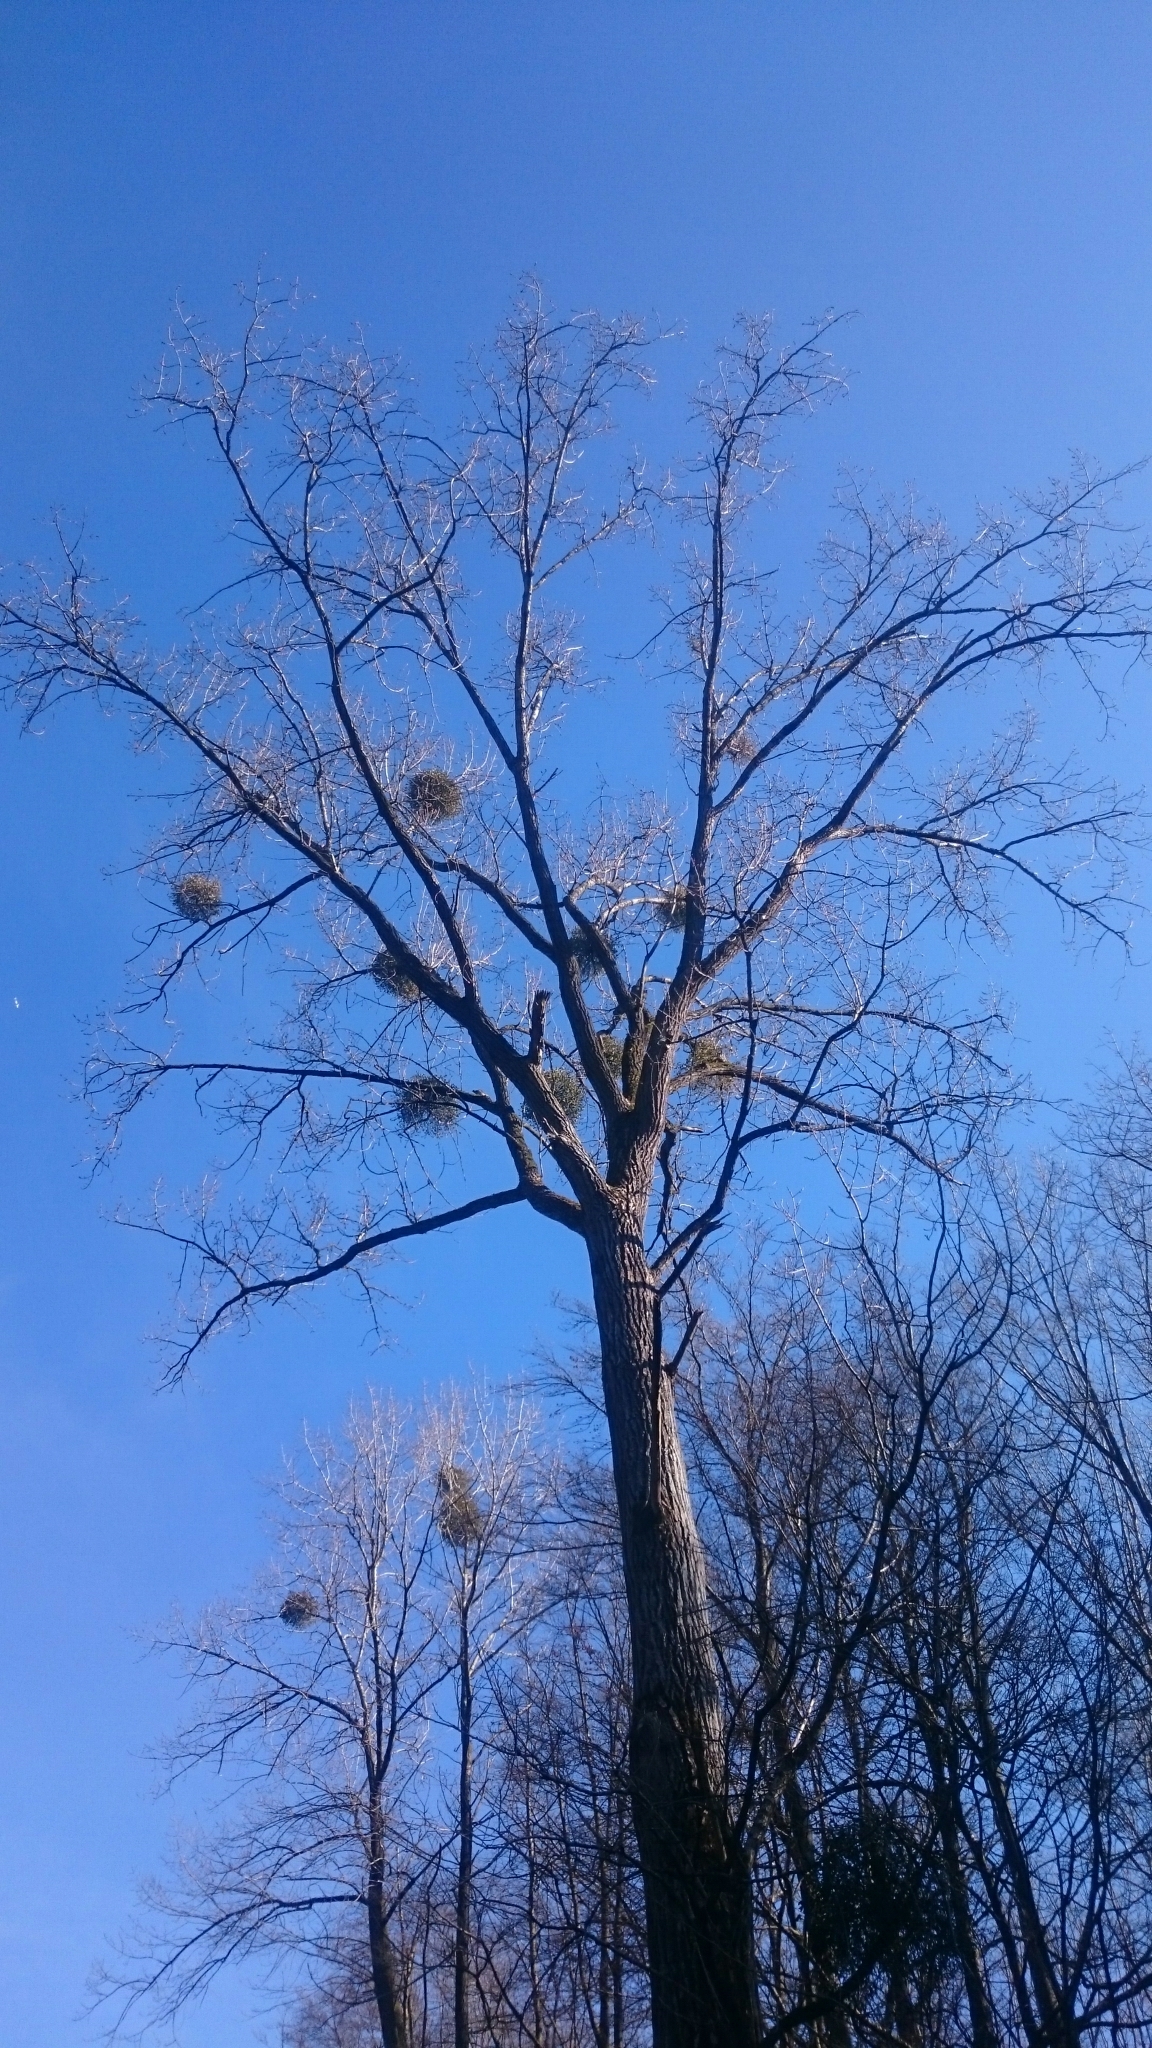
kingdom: Plantae
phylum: Tracheophyta
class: Magnoliopsida
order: Santalales
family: Viscaceae
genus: Viscum
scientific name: Viscum album
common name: Mistletoe
